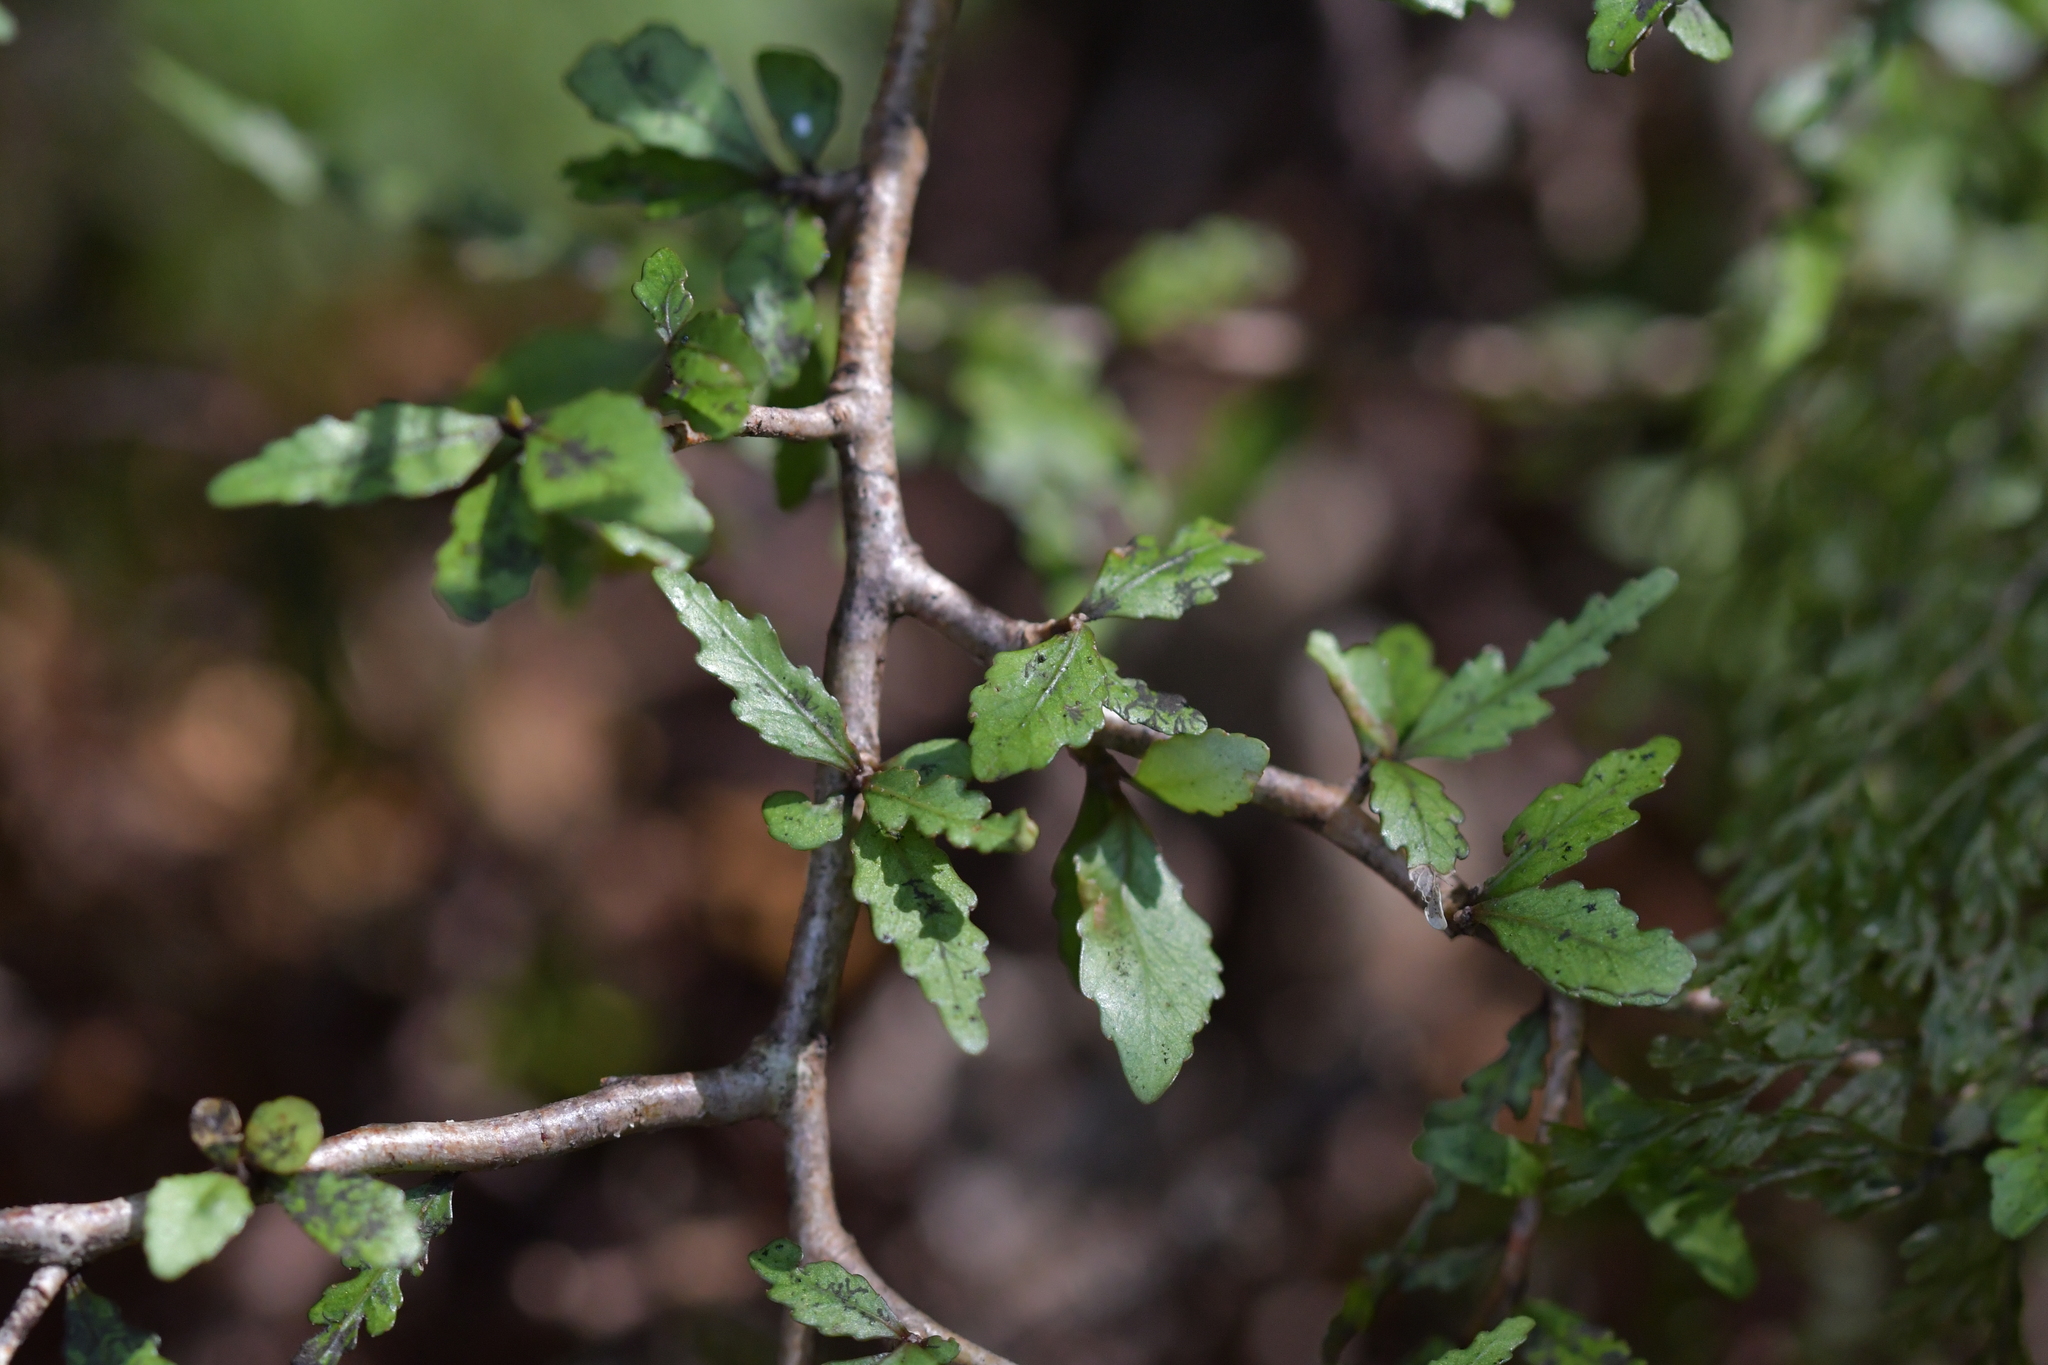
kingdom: Plantae
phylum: Tracheophyta
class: Magnoliopsida
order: Oxalidales
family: Elaeocarpaceae
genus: Elaeocarpus
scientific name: Elaeocarpus hookerianus
